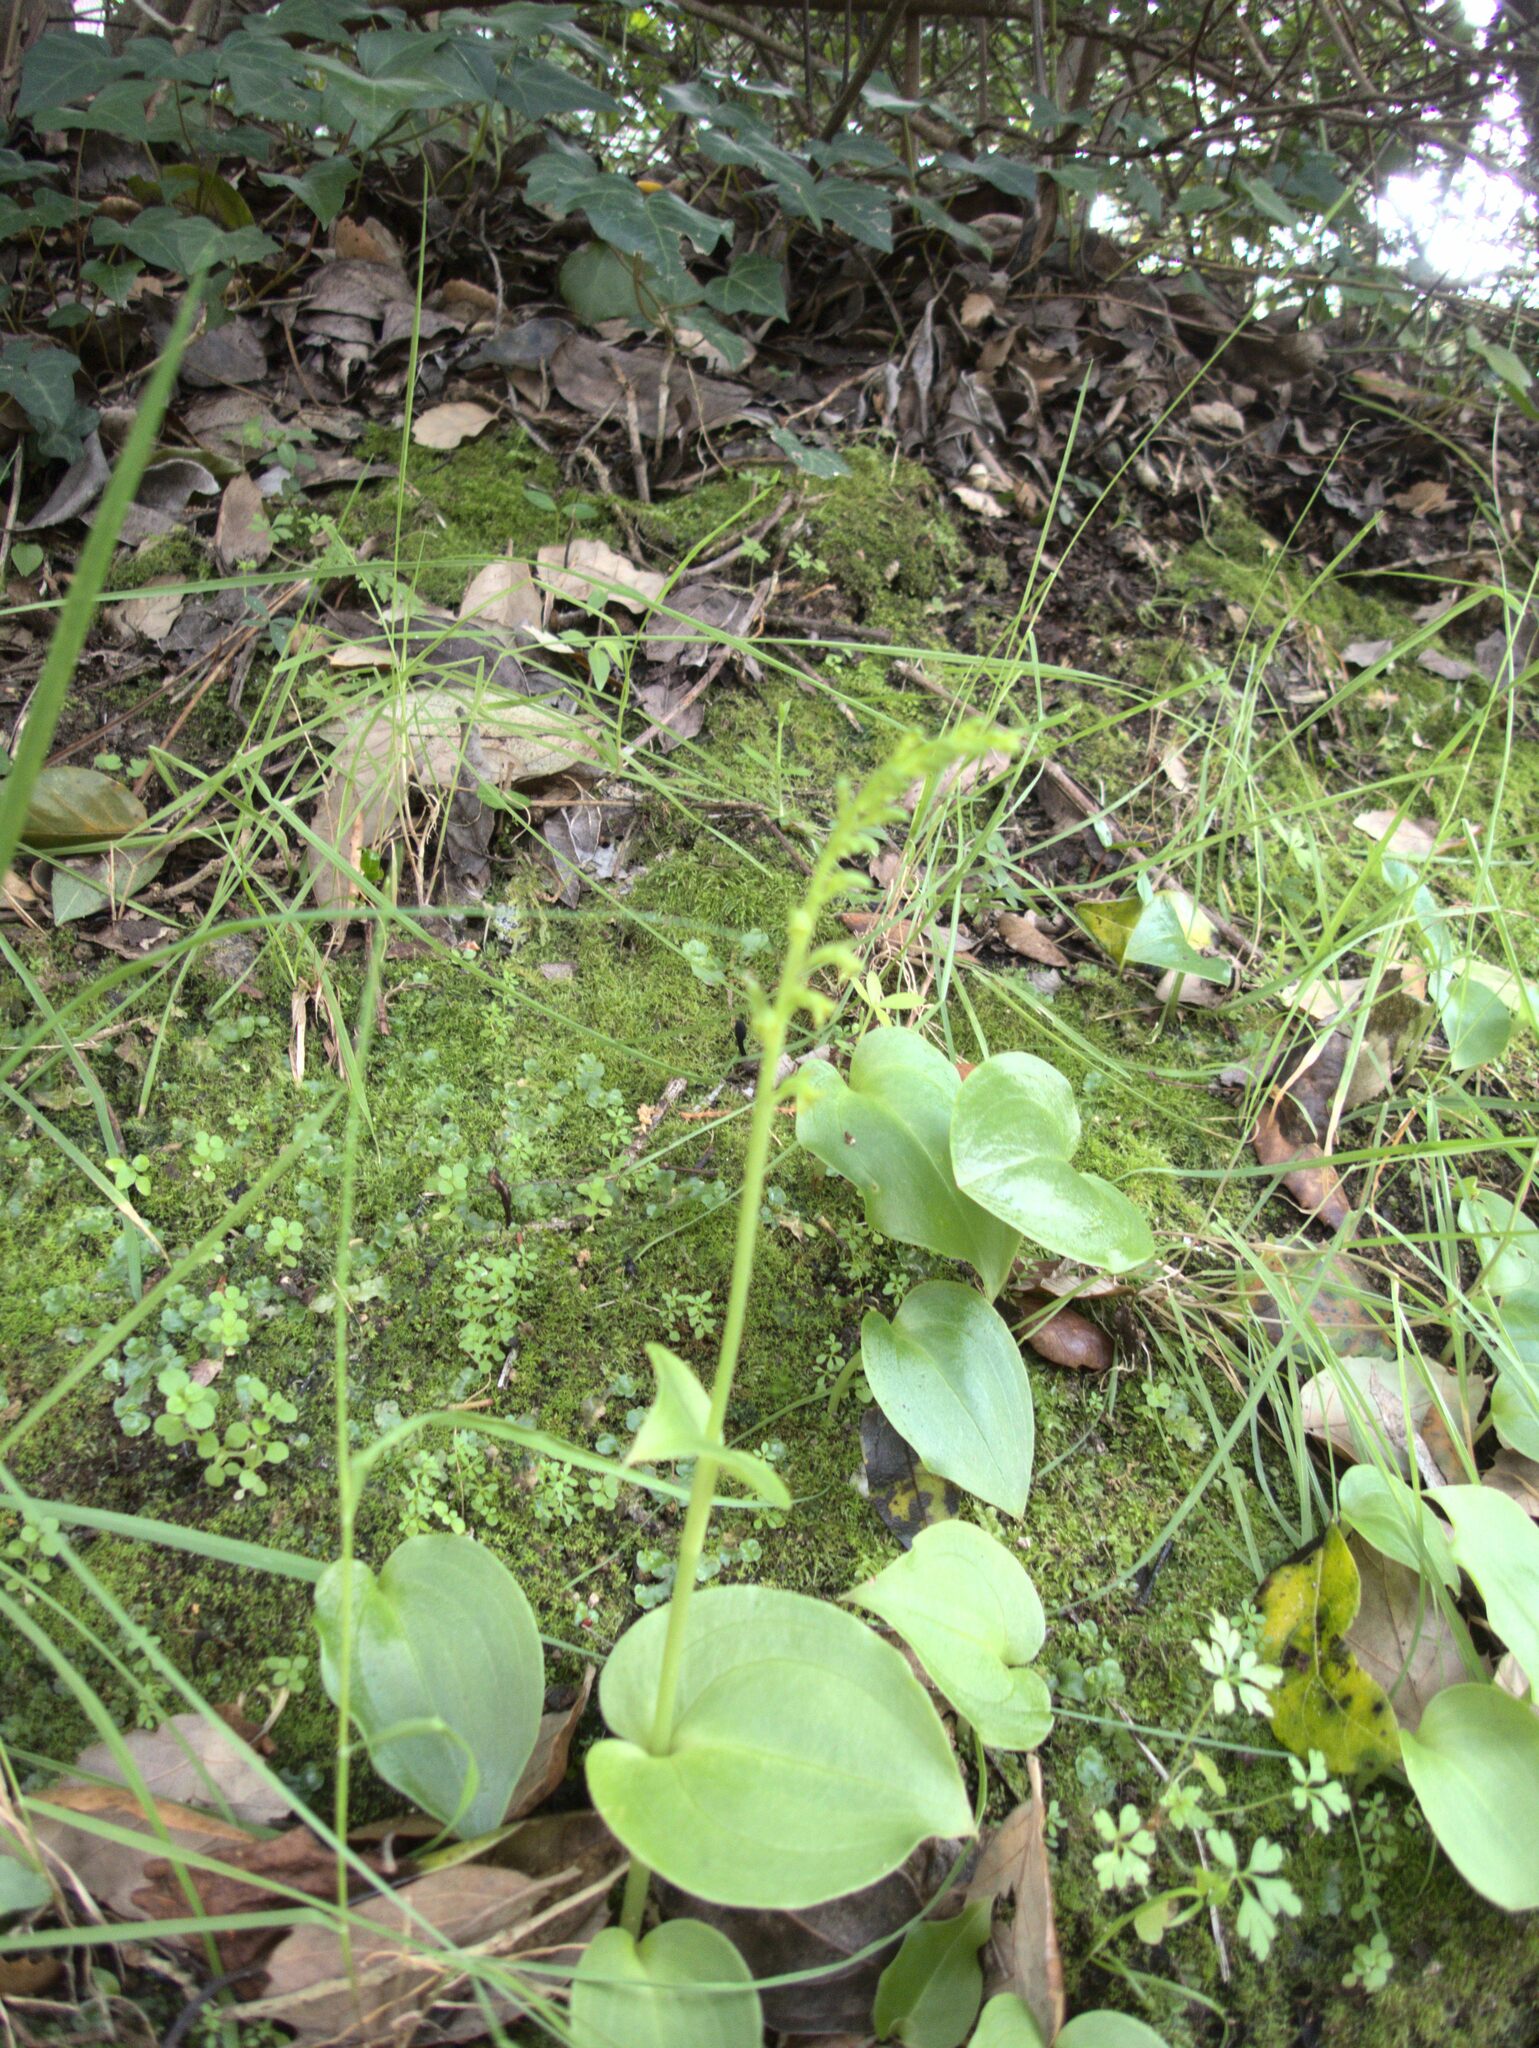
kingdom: Plantae
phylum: Tracheophyta
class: Liliopsida
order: Asparagales
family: Orchidaceae
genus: Gennaria
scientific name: Gennaria diphylla
